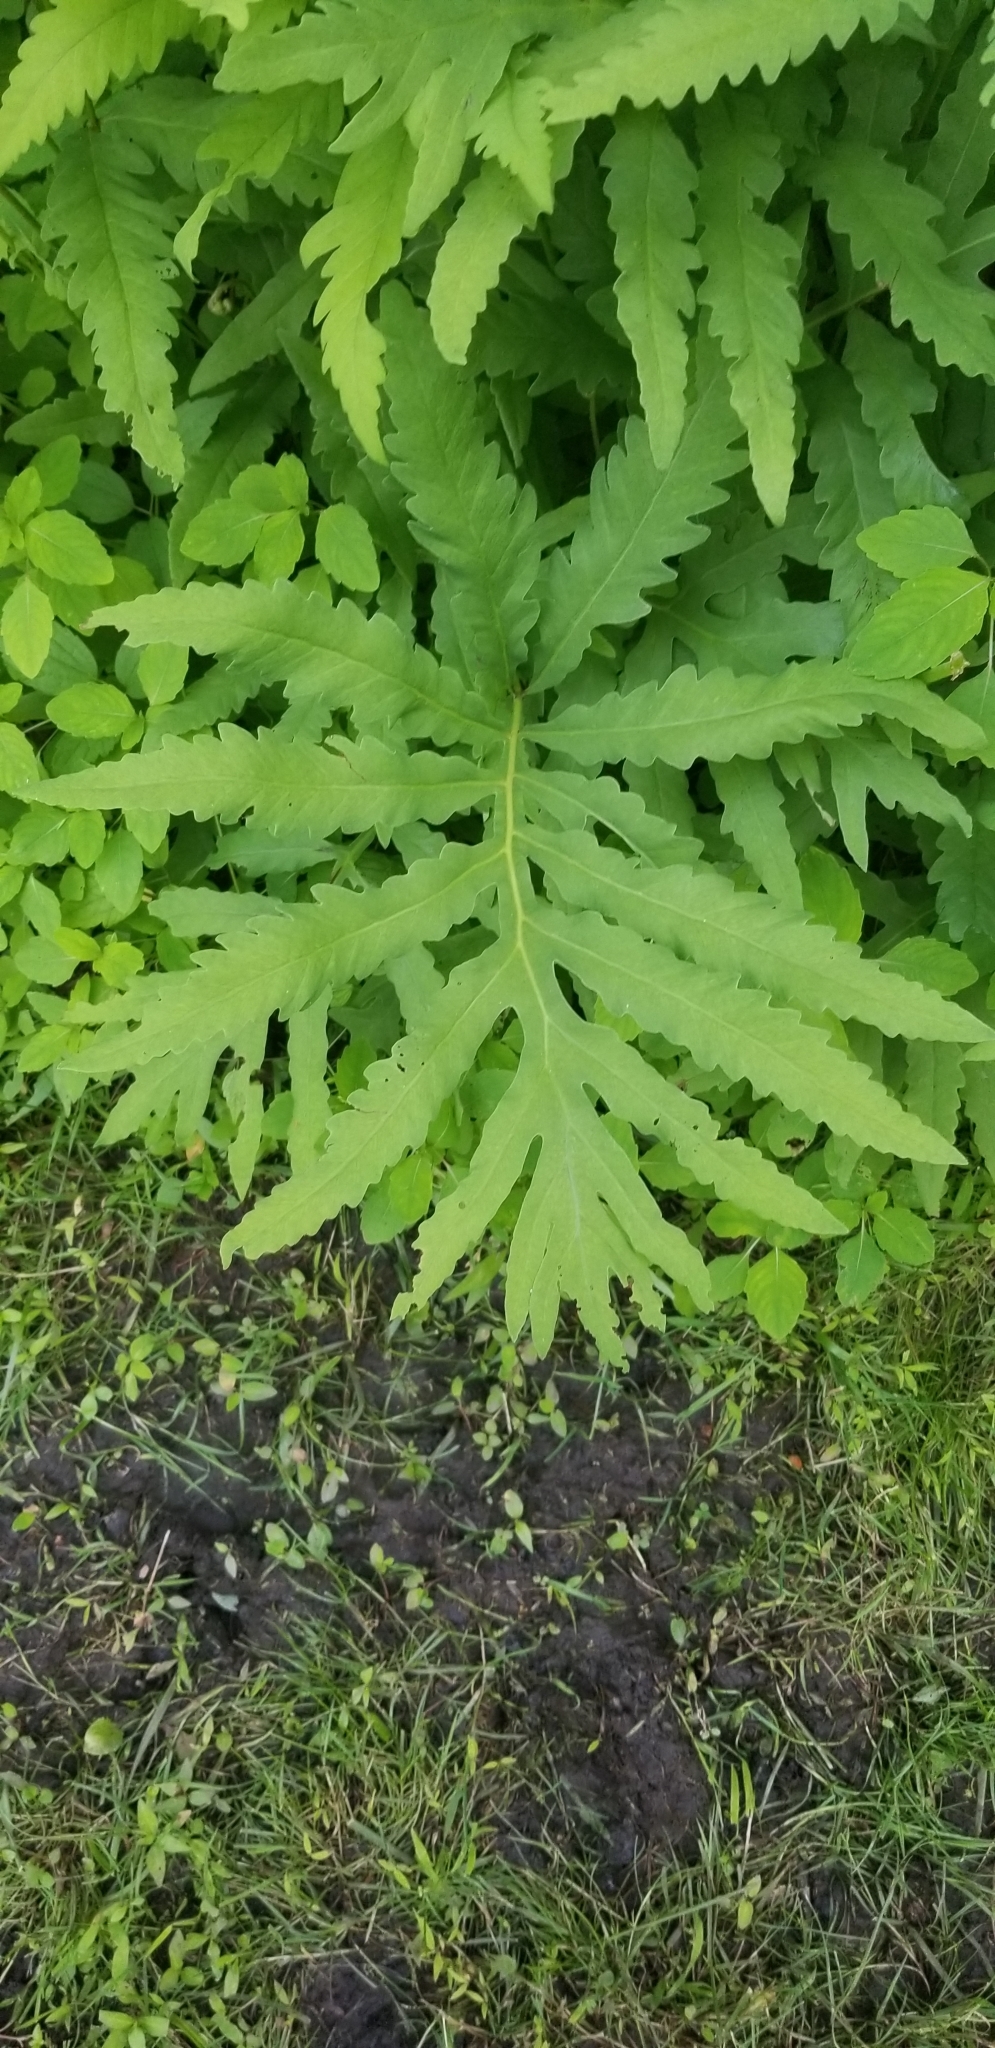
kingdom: Plantae
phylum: Tracheophyta
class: Polypodiopsida
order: Polypodiales
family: Onocleaceae
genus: Onoclea
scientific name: Onoclea sensibilis
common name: Sensitive fern
